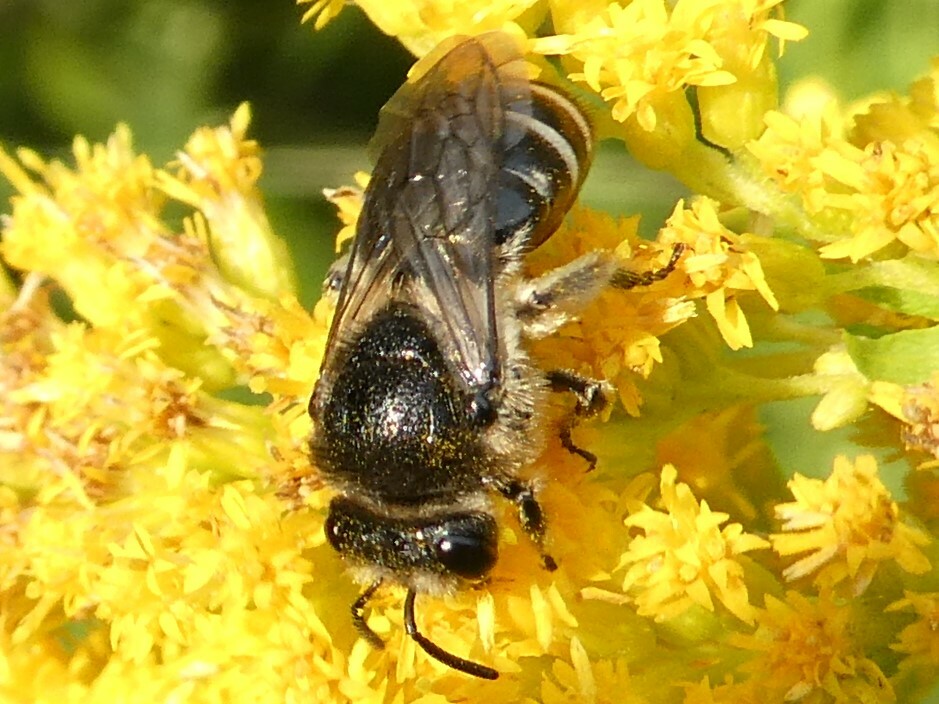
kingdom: Animalia
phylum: Arthropoda
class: Insecta
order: Hymenoptera
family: Colletidae
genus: Colletes
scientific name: Colletes simulans
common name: Spine-shouldered cellophane bee
